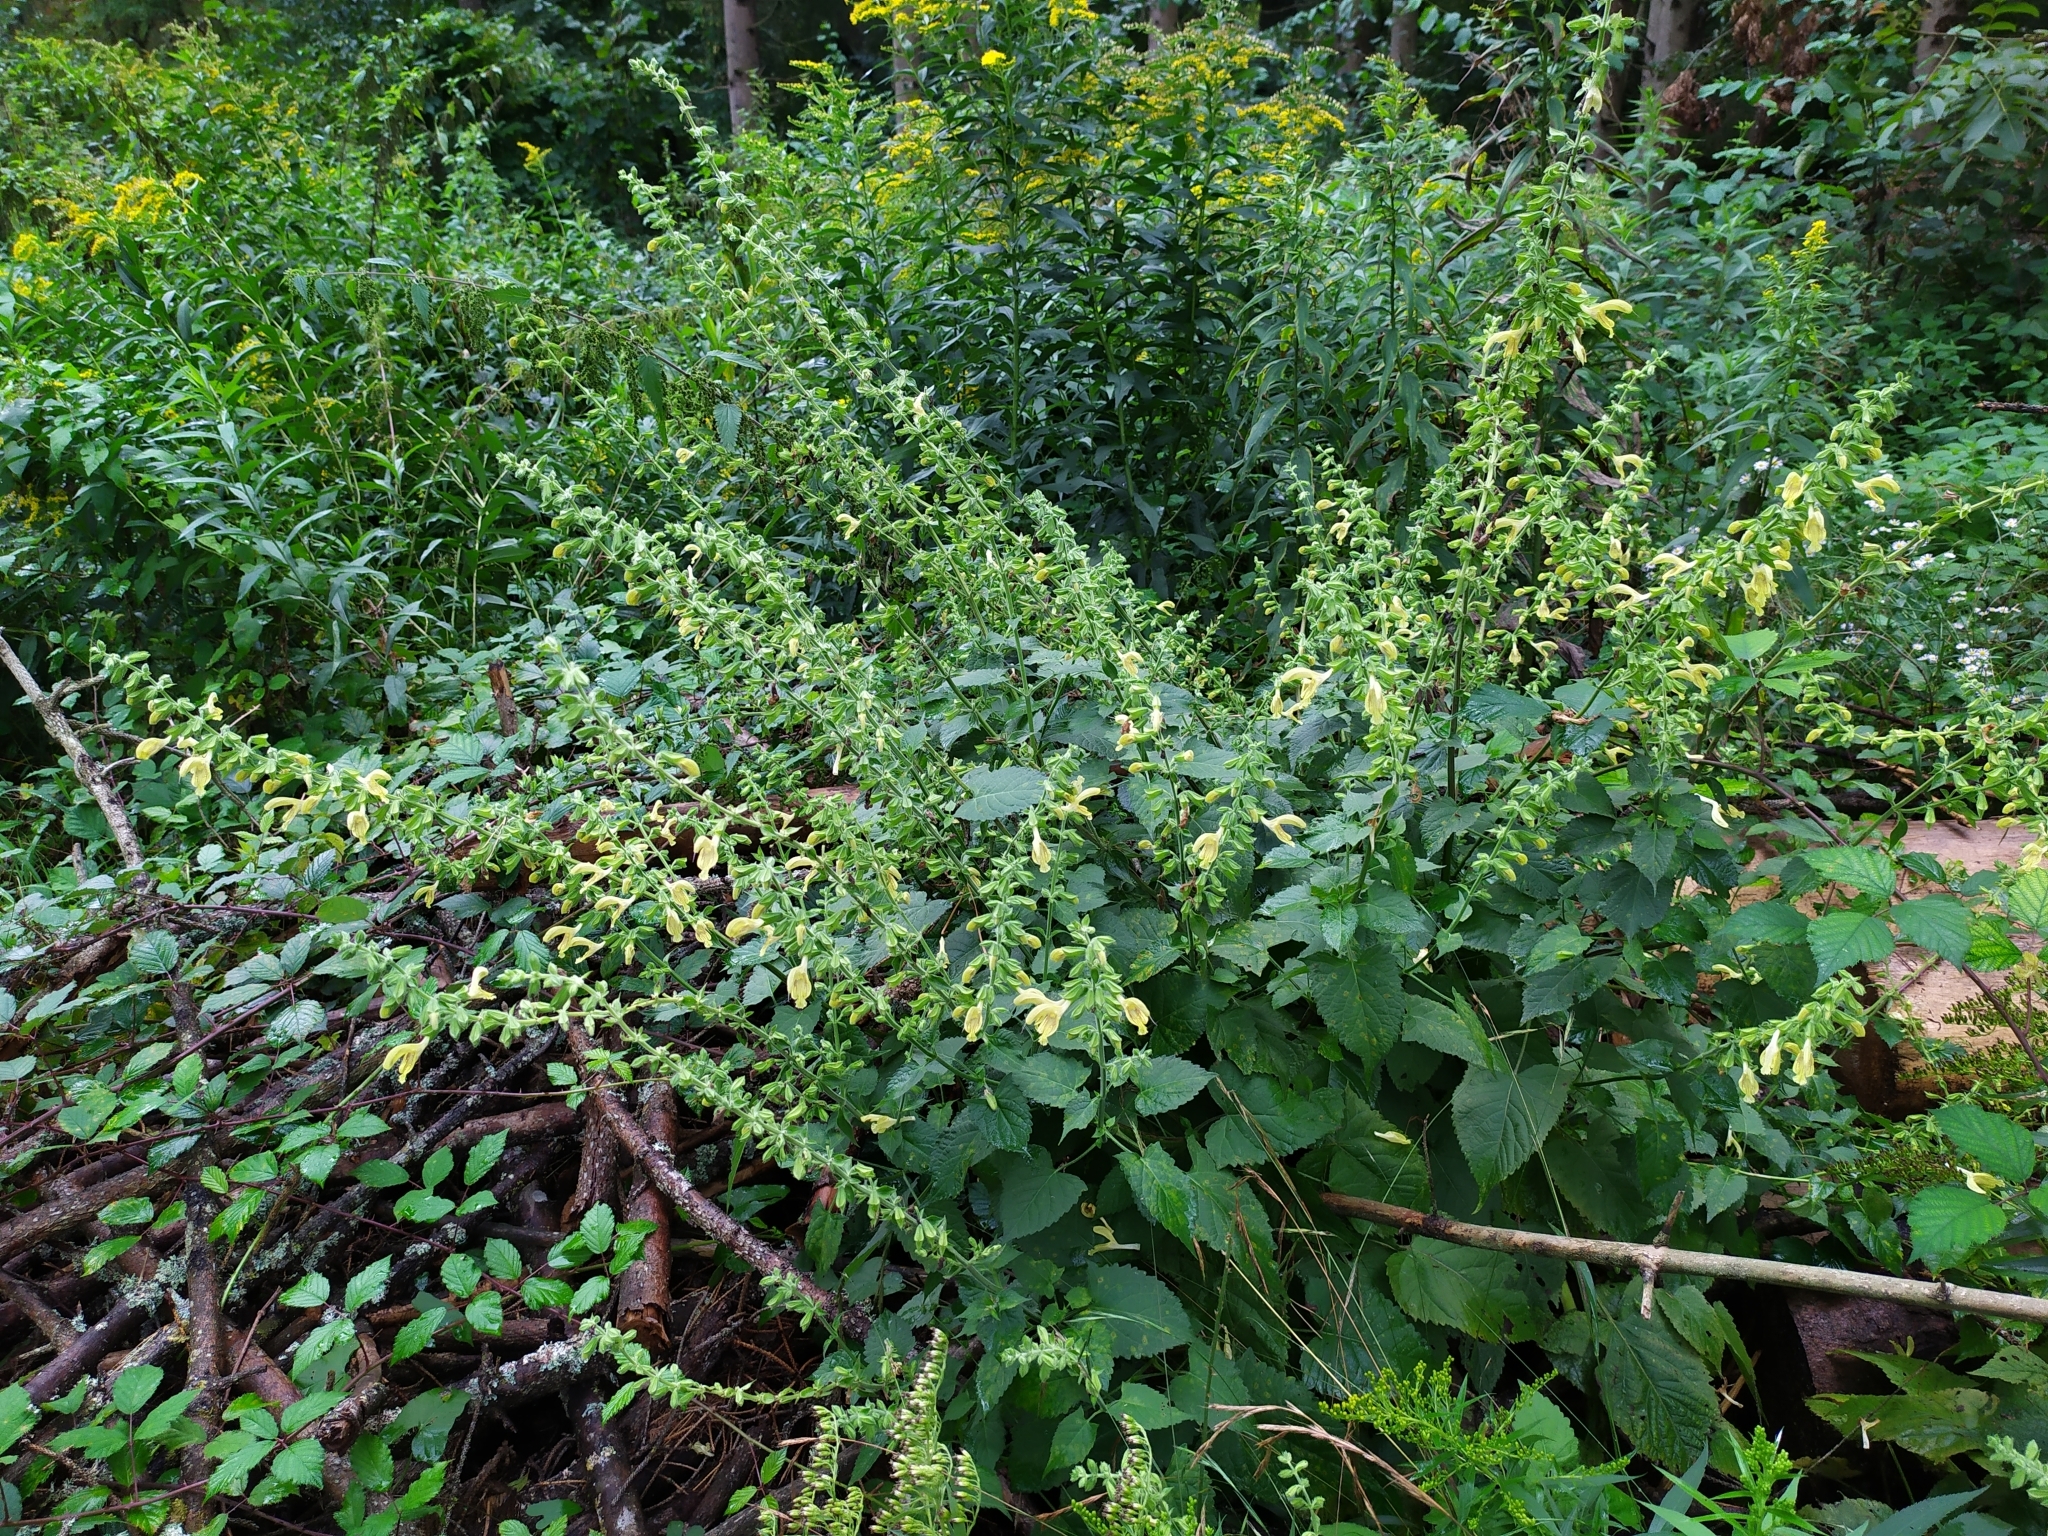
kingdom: Plantae
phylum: Tracheophyta
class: Magnoliopsida
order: Lamiales
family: Lamiaceae
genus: Salvia
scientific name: Salvia glutinosa
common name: Sticky clary
